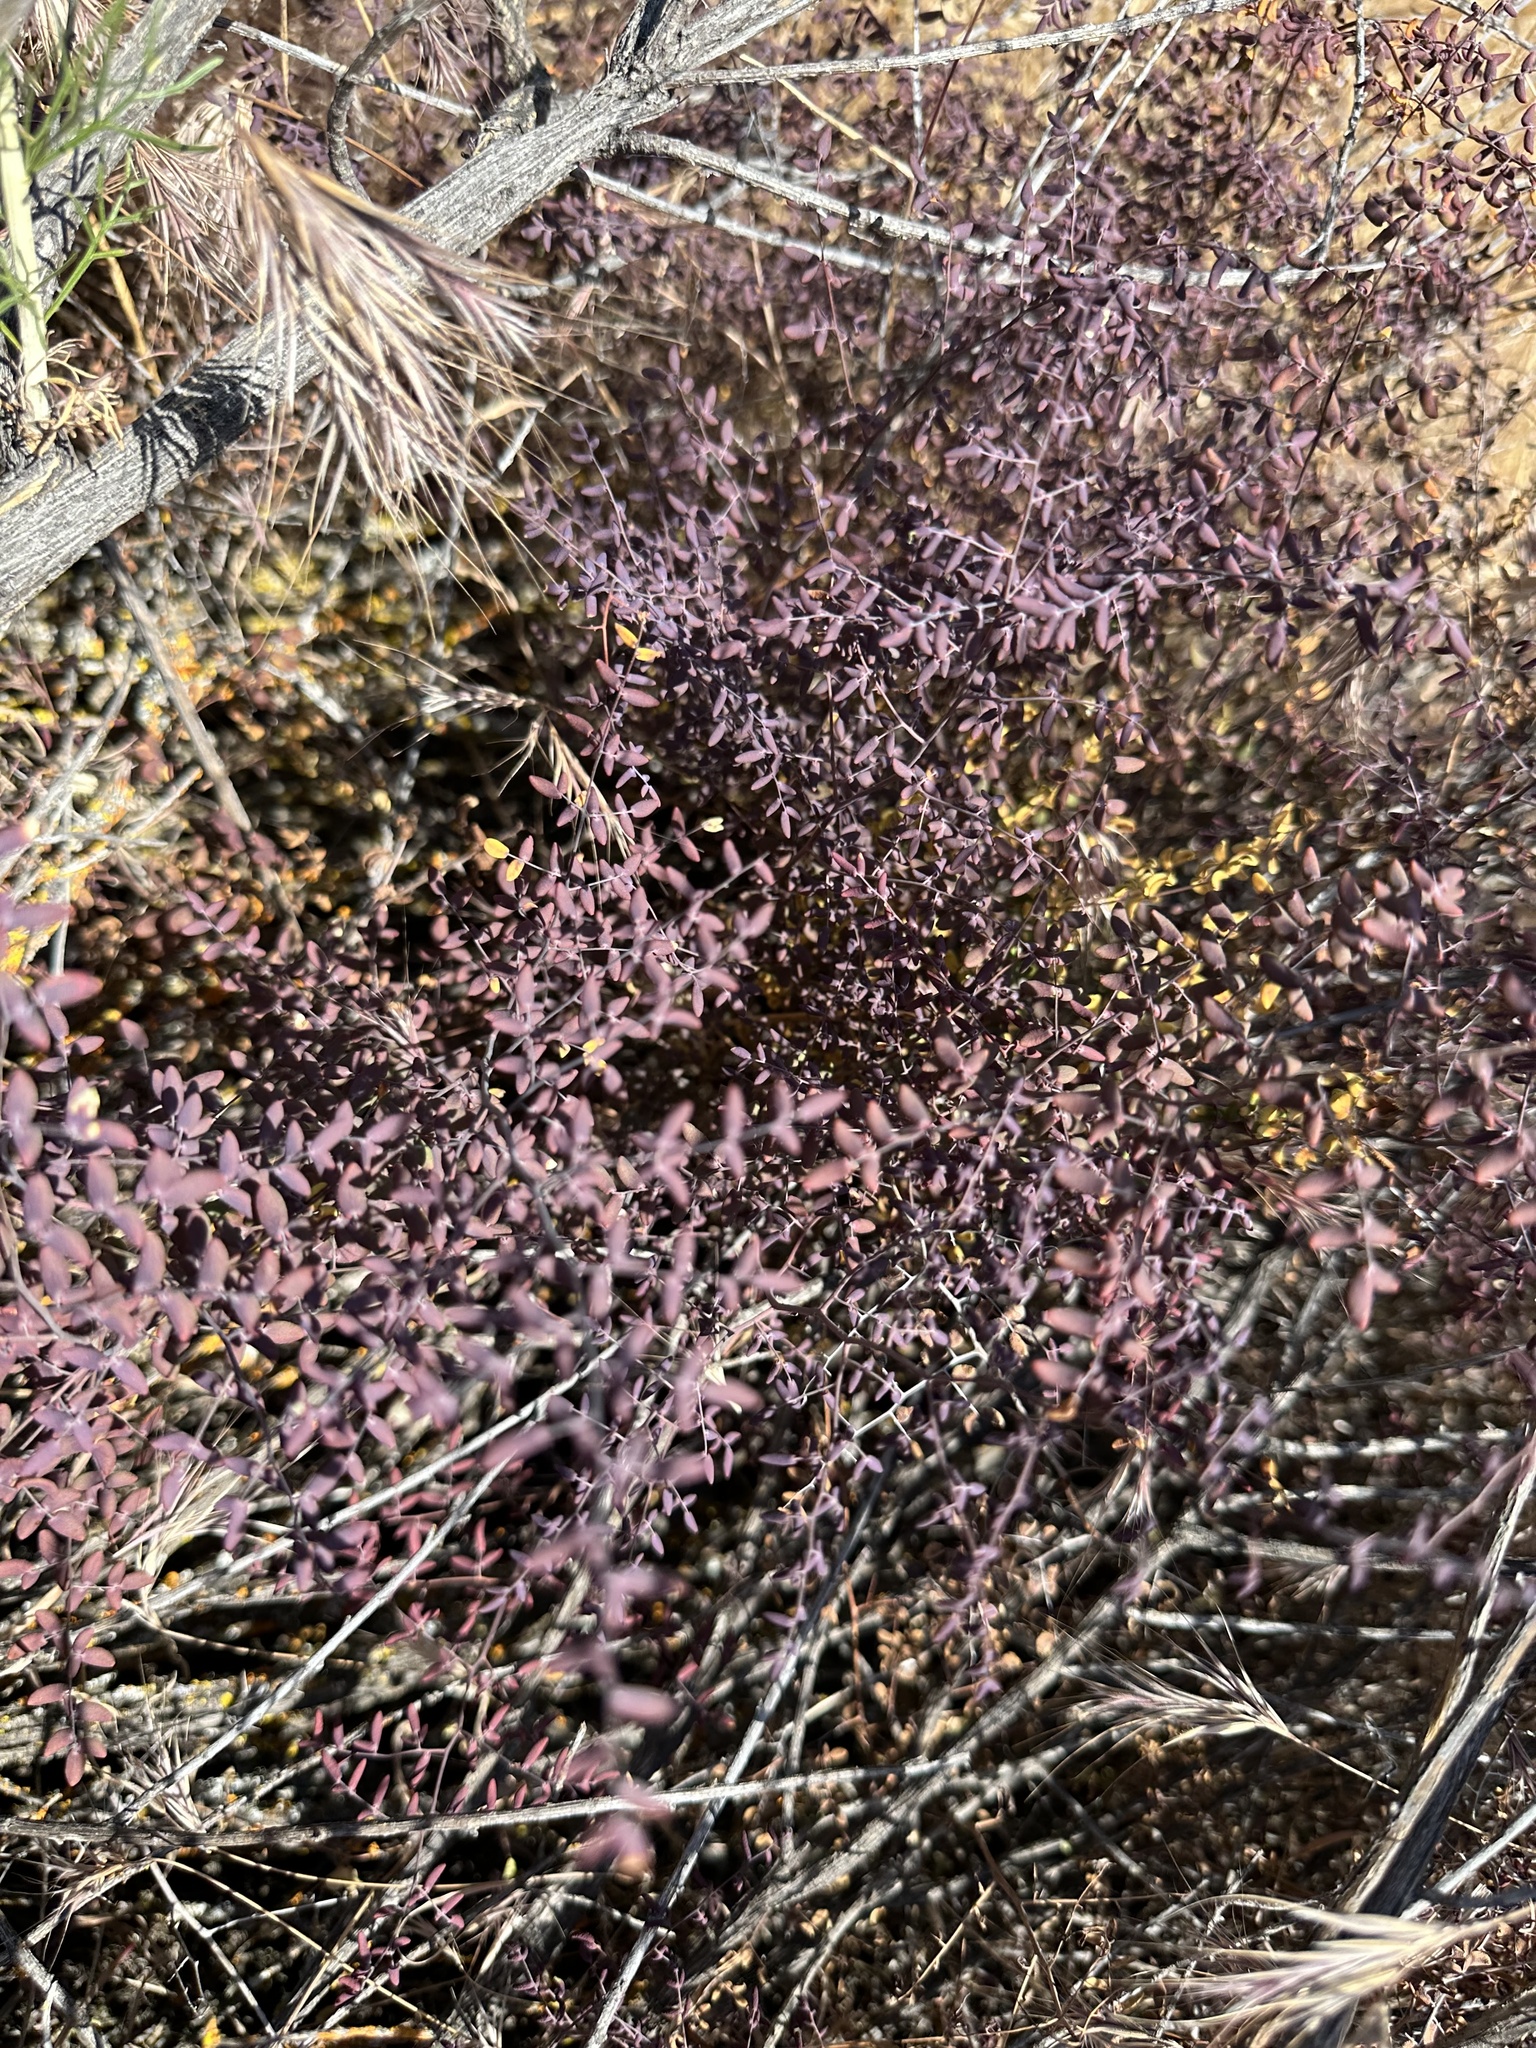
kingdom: Plantae
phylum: Tracheophyta
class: Polypodiopsida
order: Polypodiales
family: Pteridaceae
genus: Pellaea
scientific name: Pellaea andromedifolia
